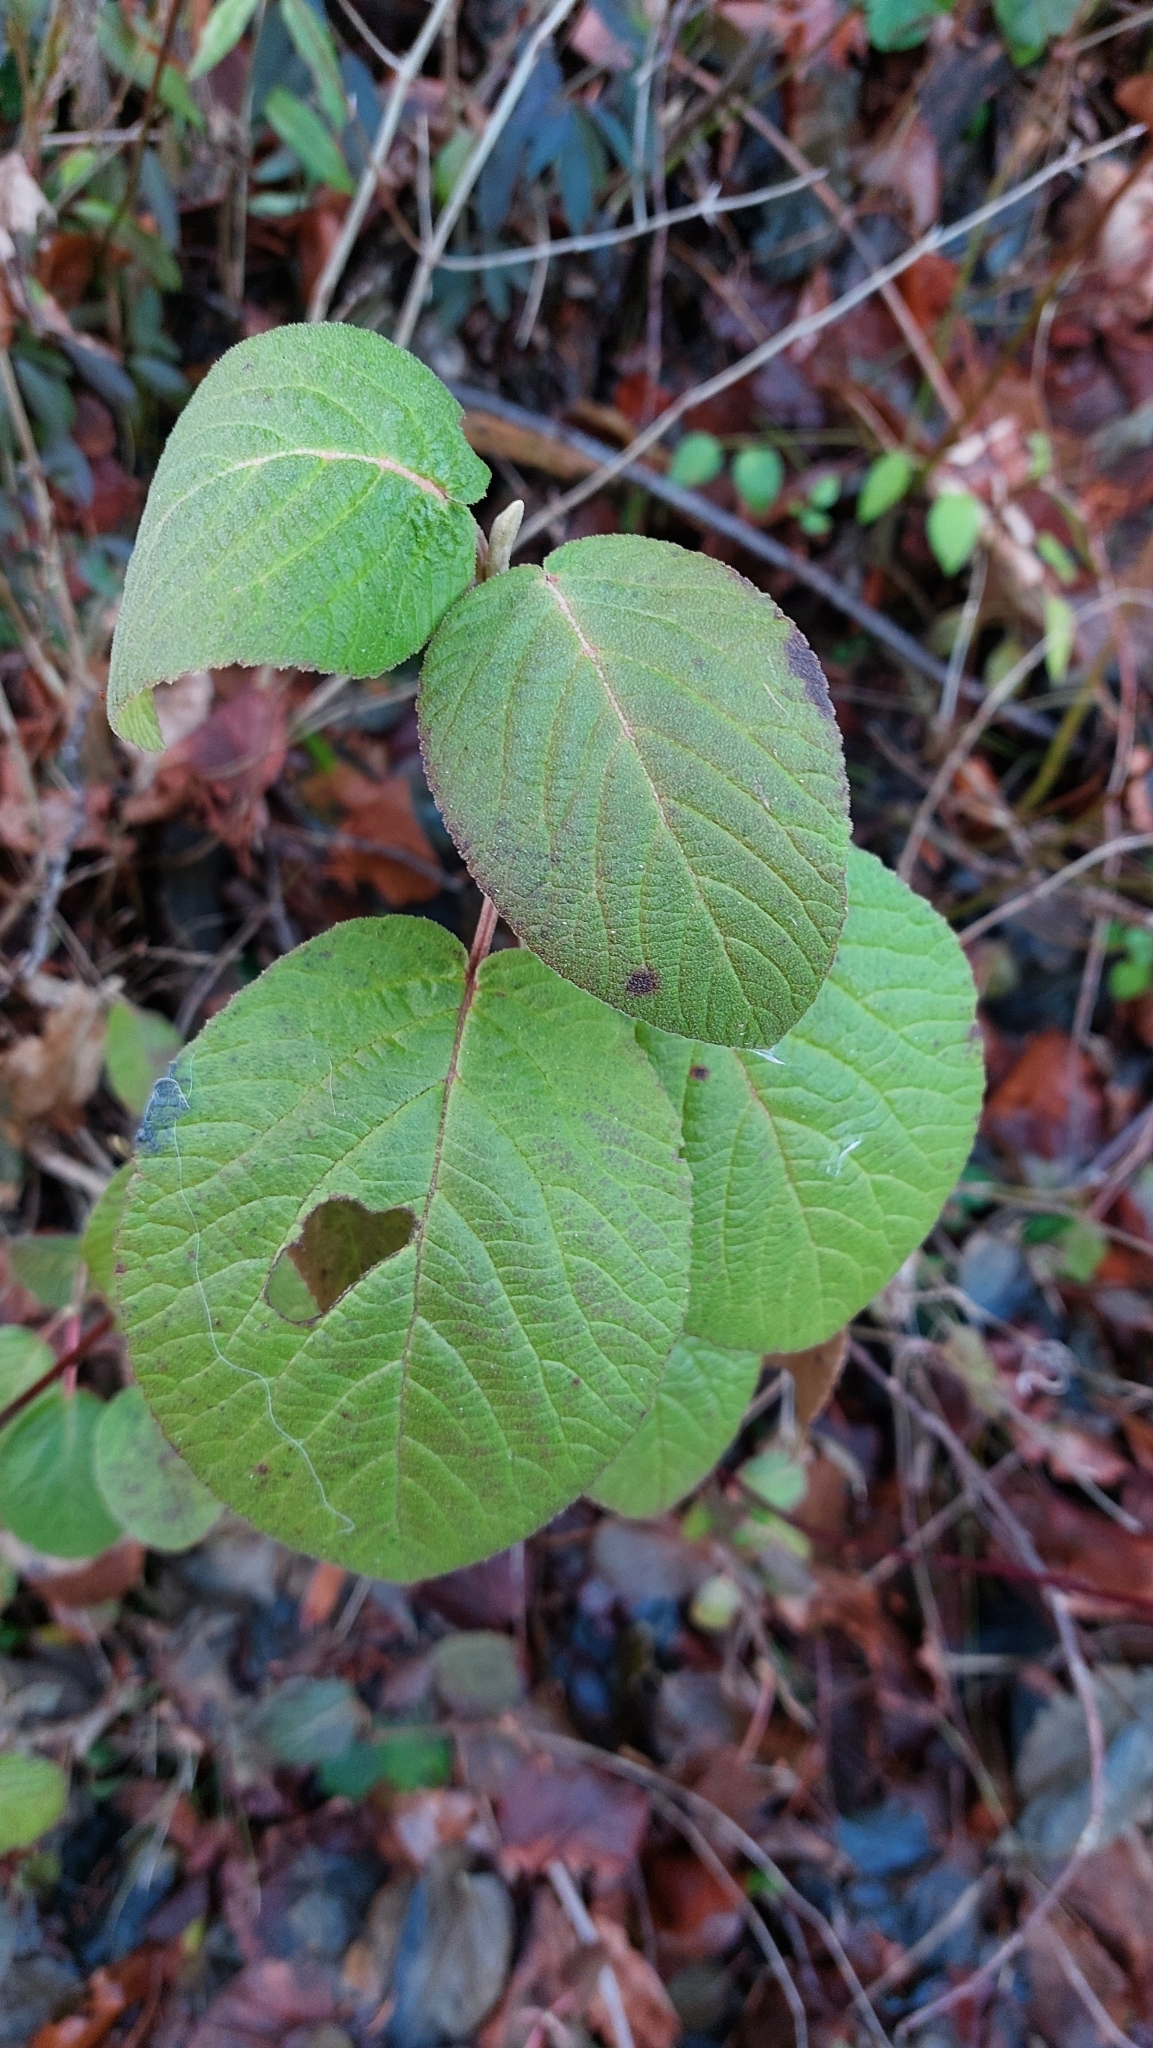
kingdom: Plantae
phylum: Tracheophyta
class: Magnoliopsida
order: Dipsacales
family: Viburnaceae
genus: Viburnum
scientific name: Viburnum lantana
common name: Wayfaring tree
